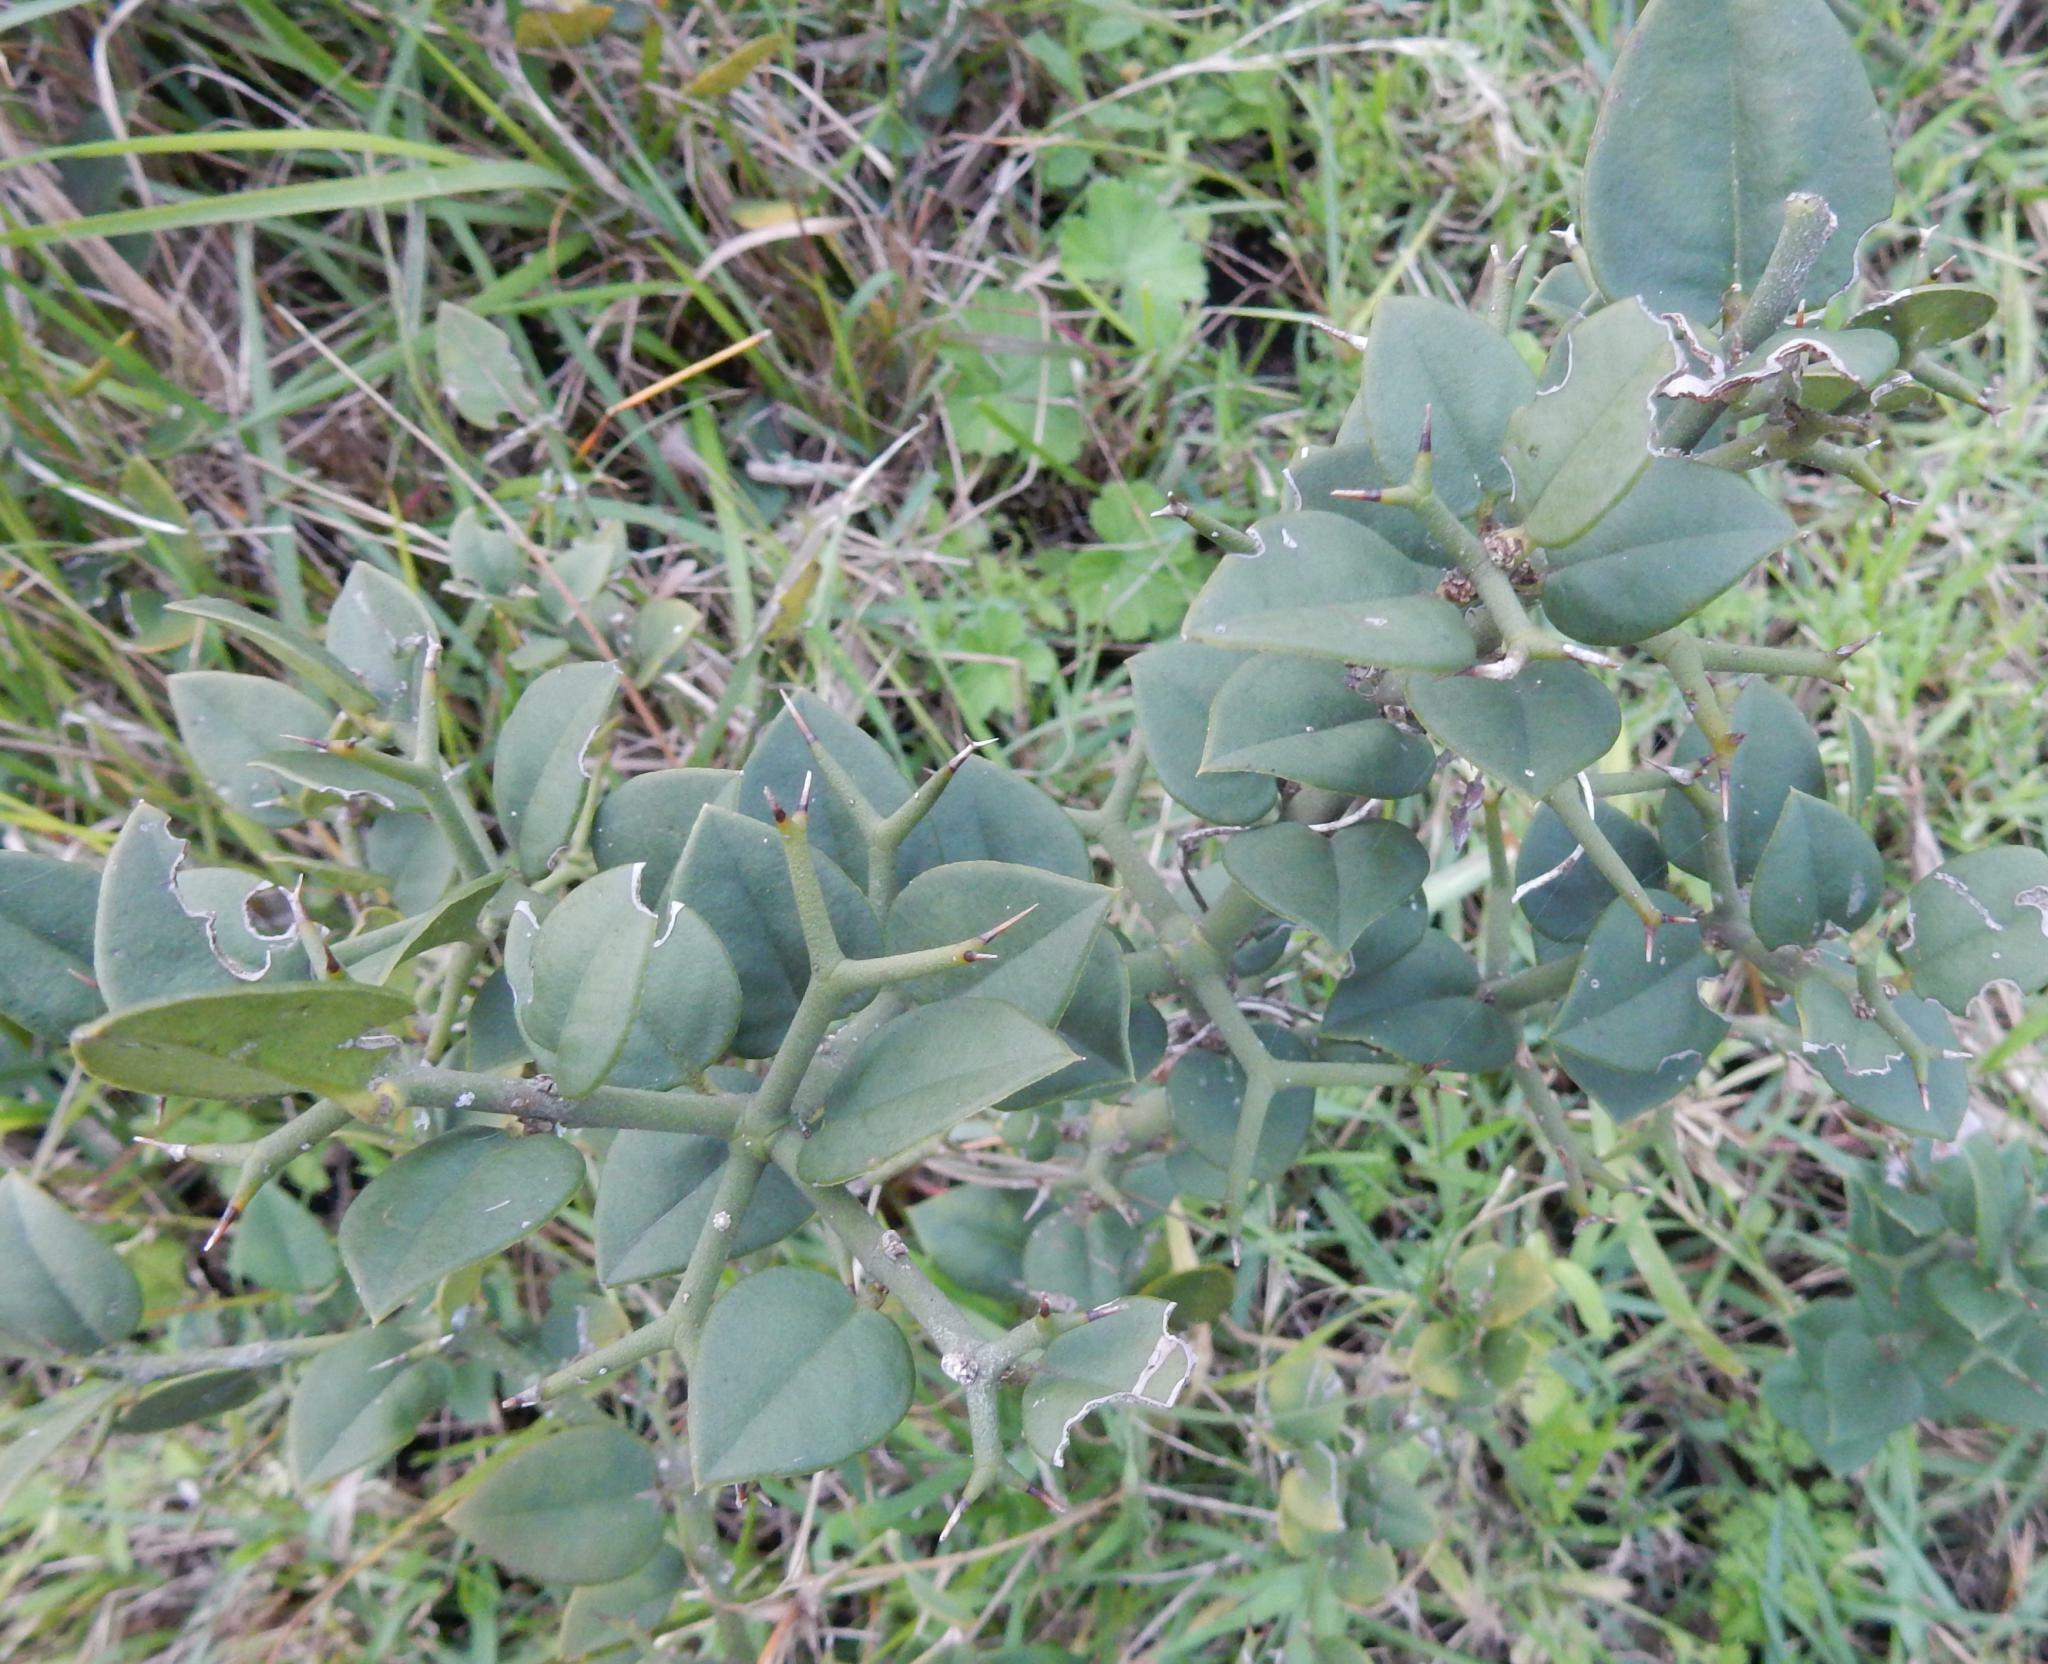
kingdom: Plantae
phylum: Tracheophyta
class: Magnoliopsida
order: Gentianales
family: Apocynaceae
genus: Carissa
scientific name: Carissa bispinosa
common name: Forest num-num
